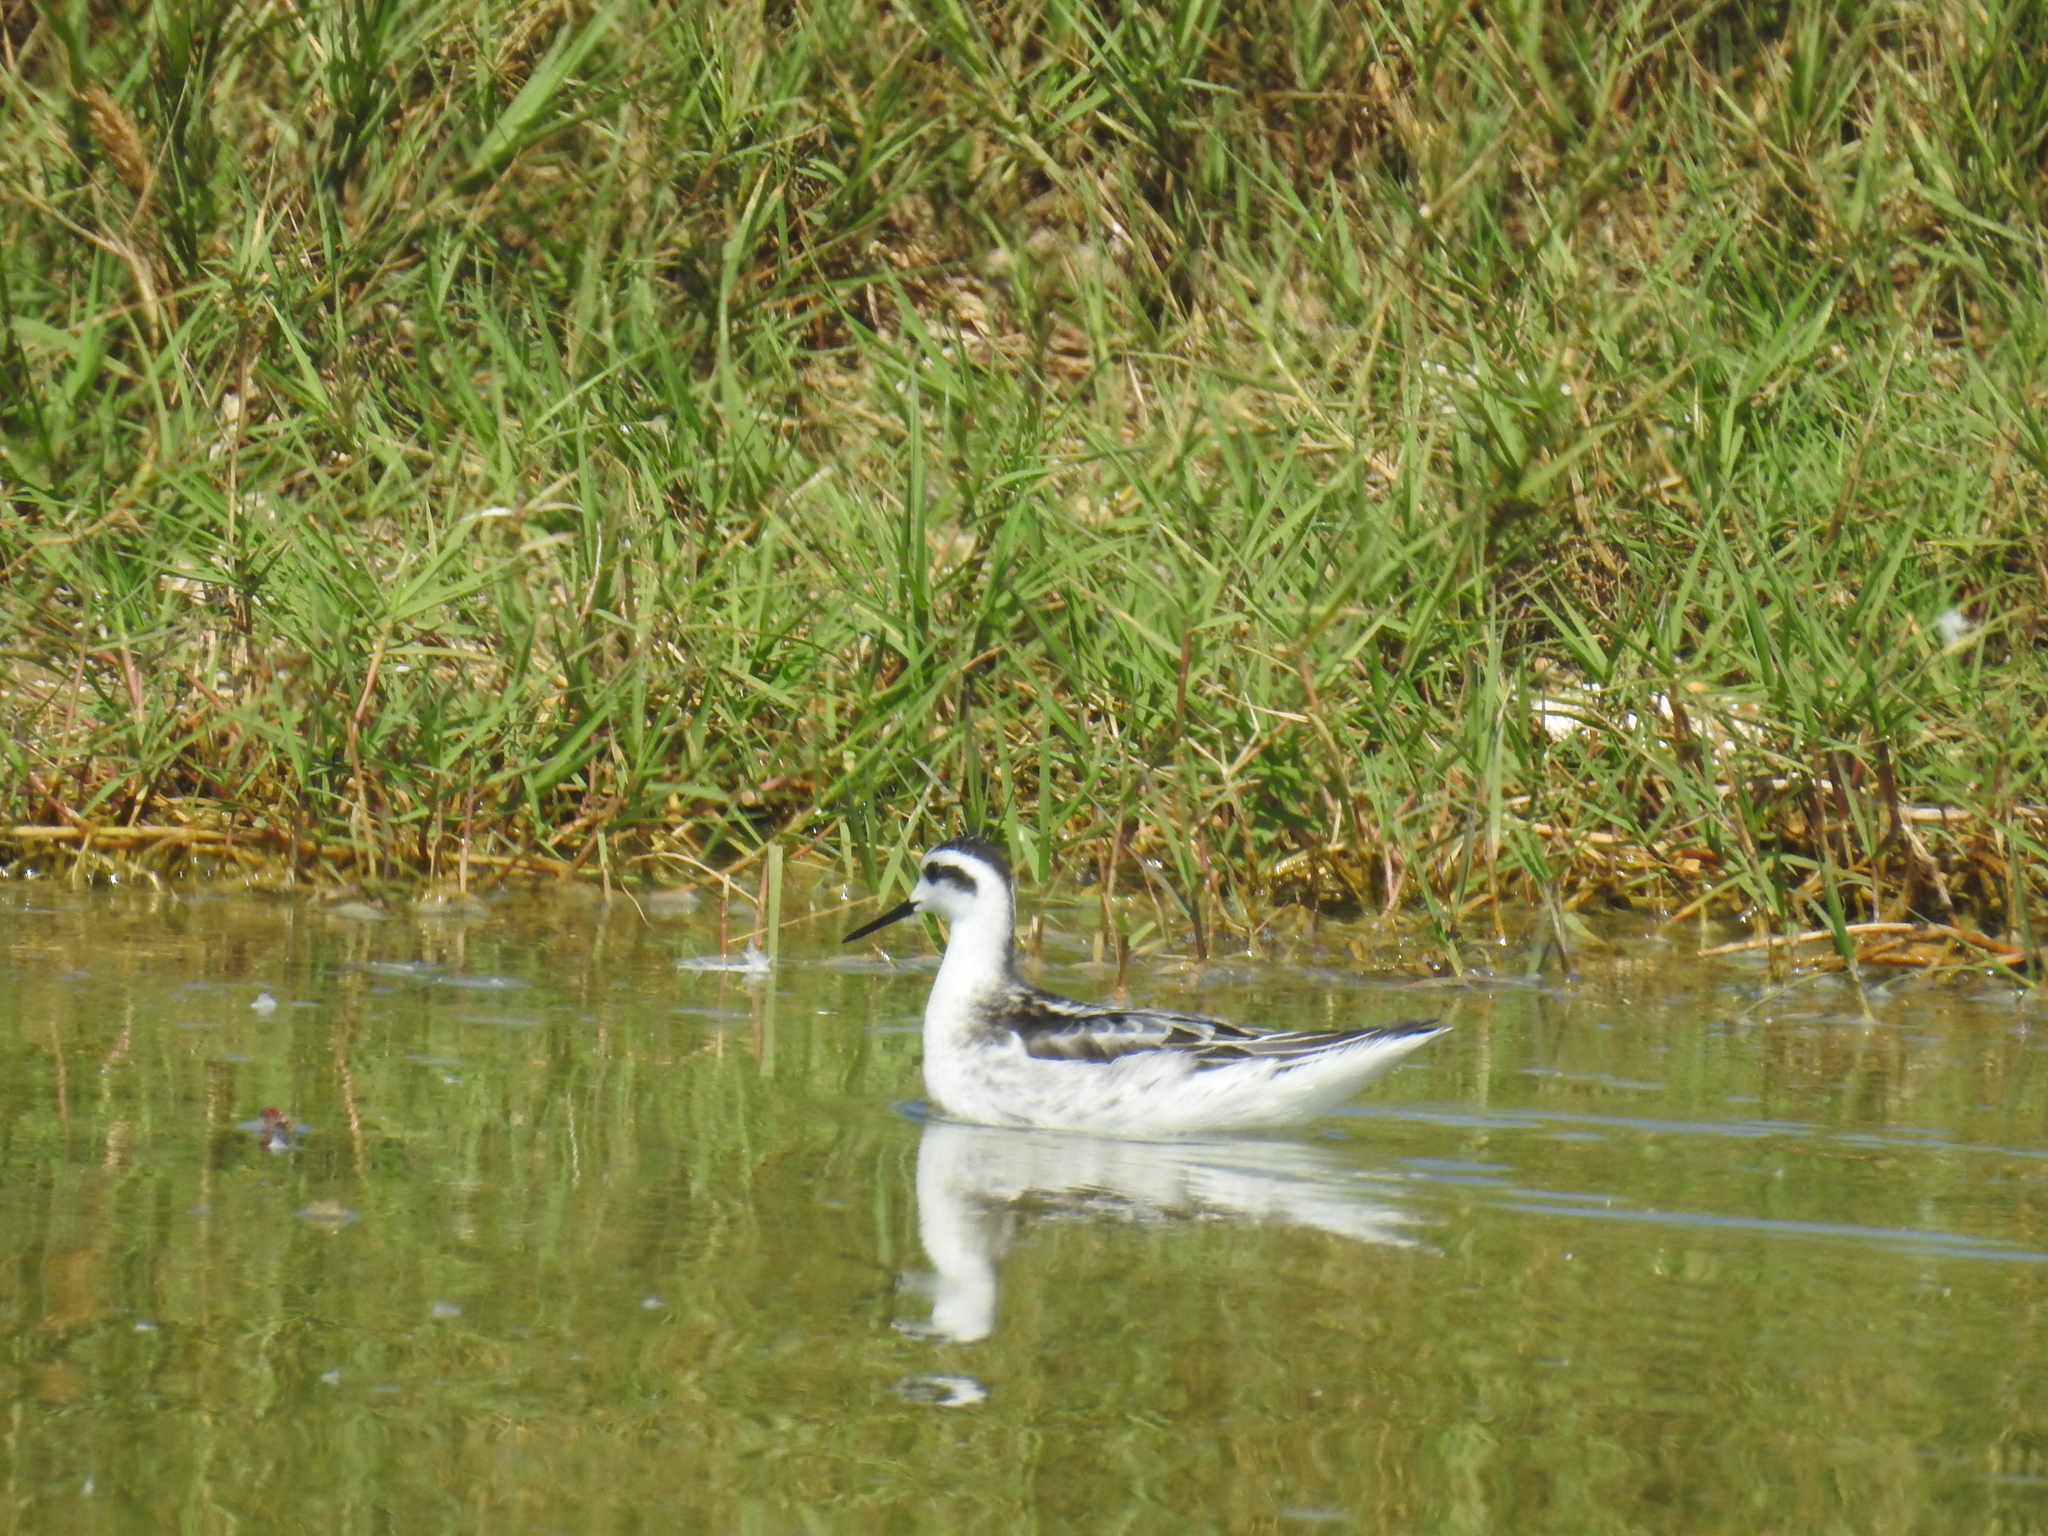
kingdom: Animalia
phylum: Chordata
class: Aves
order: Charadriiformes
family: Scolopacidae
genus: Phalaropus
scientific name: Phalaropus lobatus
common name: Red-necked phalarope
